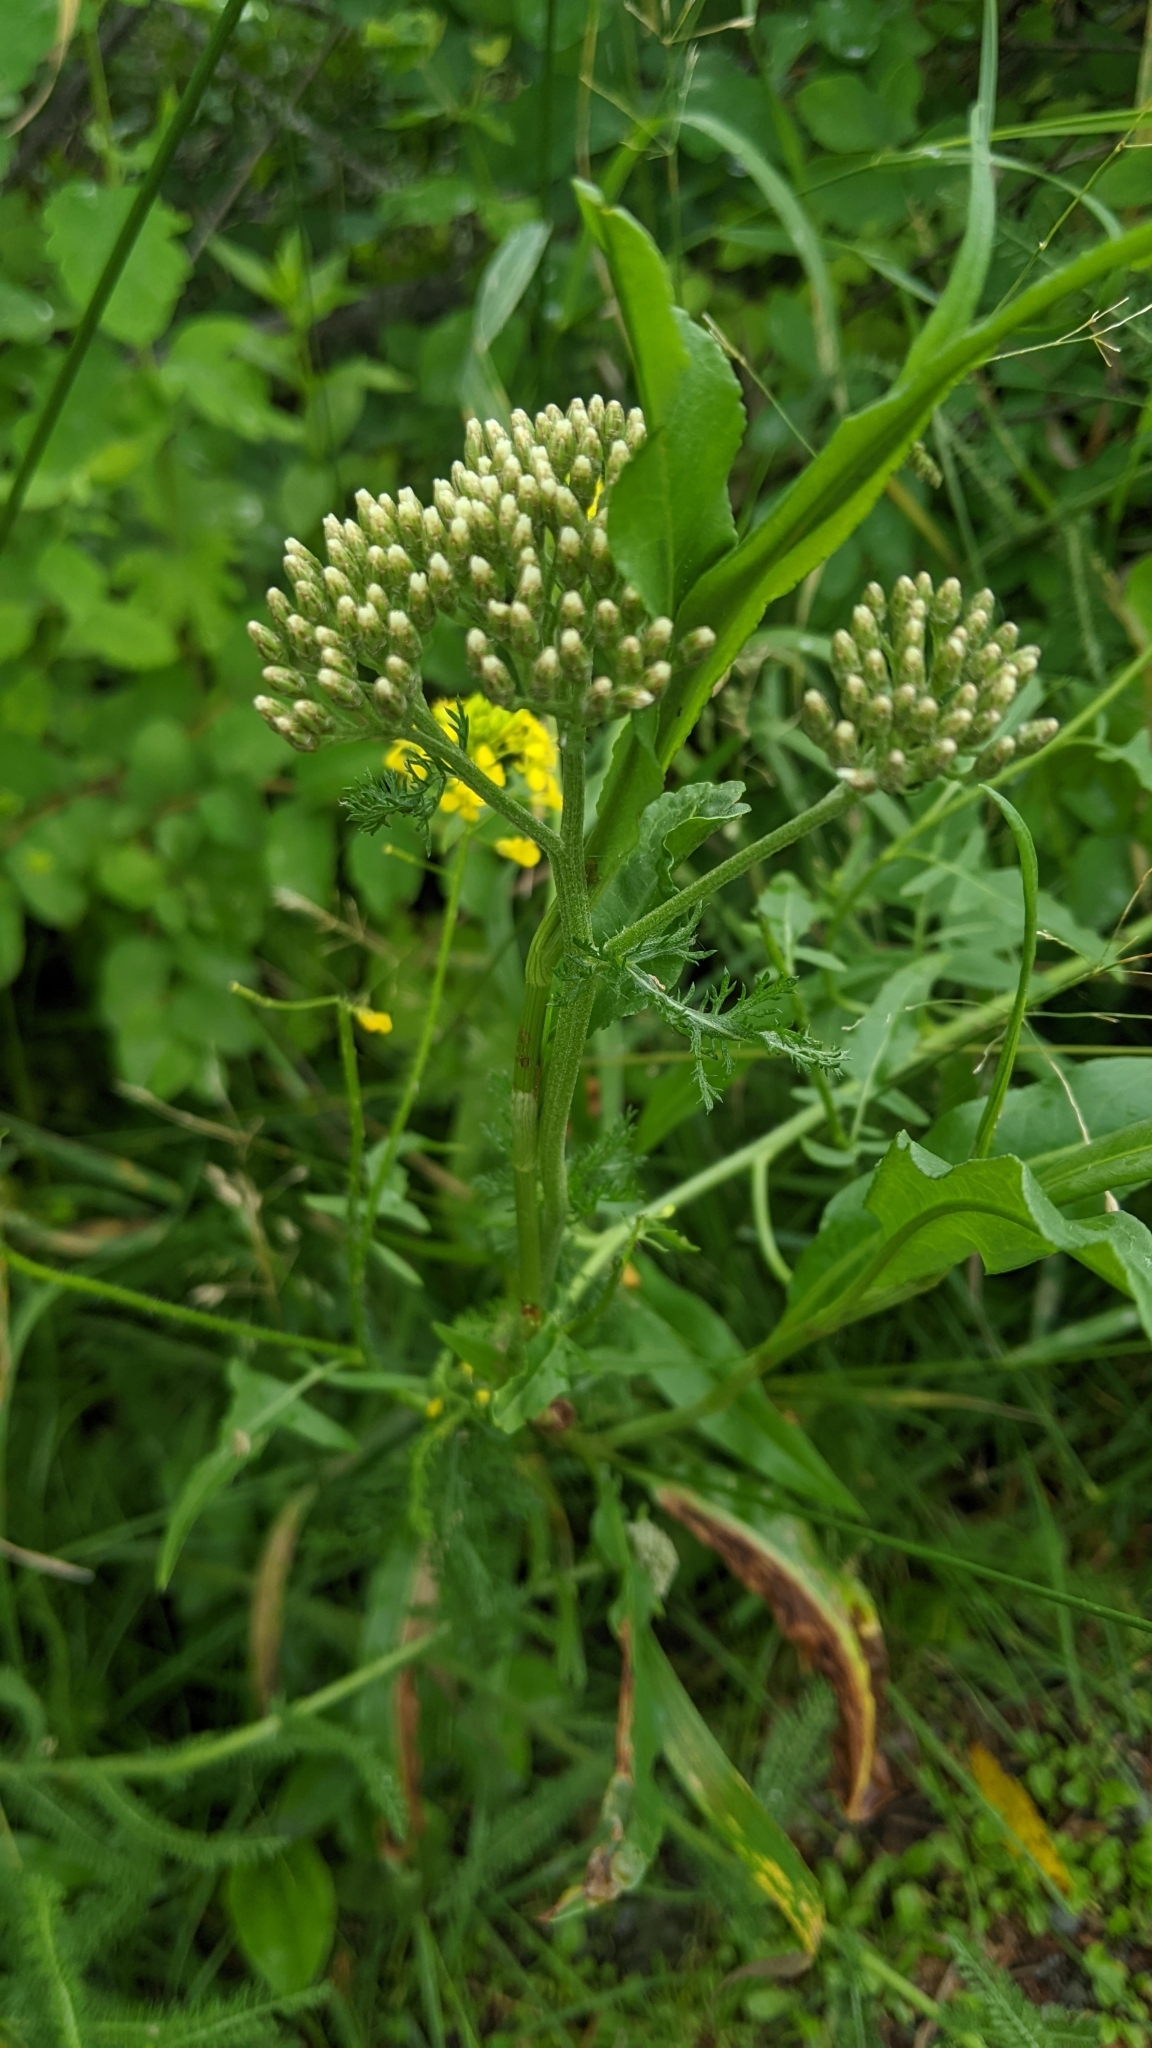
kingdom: Plantae
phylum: Tracheophyta
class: Magnoliopsida
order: Asterales
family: Asteraceae
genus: Achillea
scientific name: Achillea millefolium
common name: Yarrow
